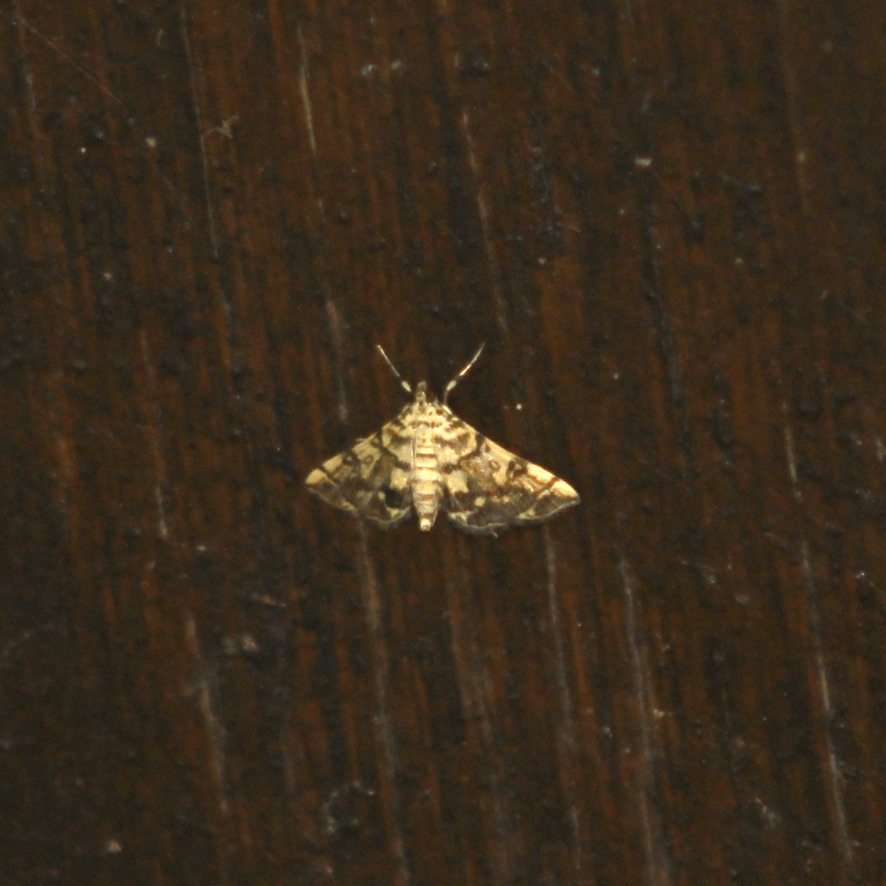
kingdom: Animalia
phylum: Arthropoda
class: Insecta
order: Lepidoptera
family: Crambidae
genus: Apogeshna
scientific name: Apogeshna stenialis
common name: Checkered apogeshna moth
